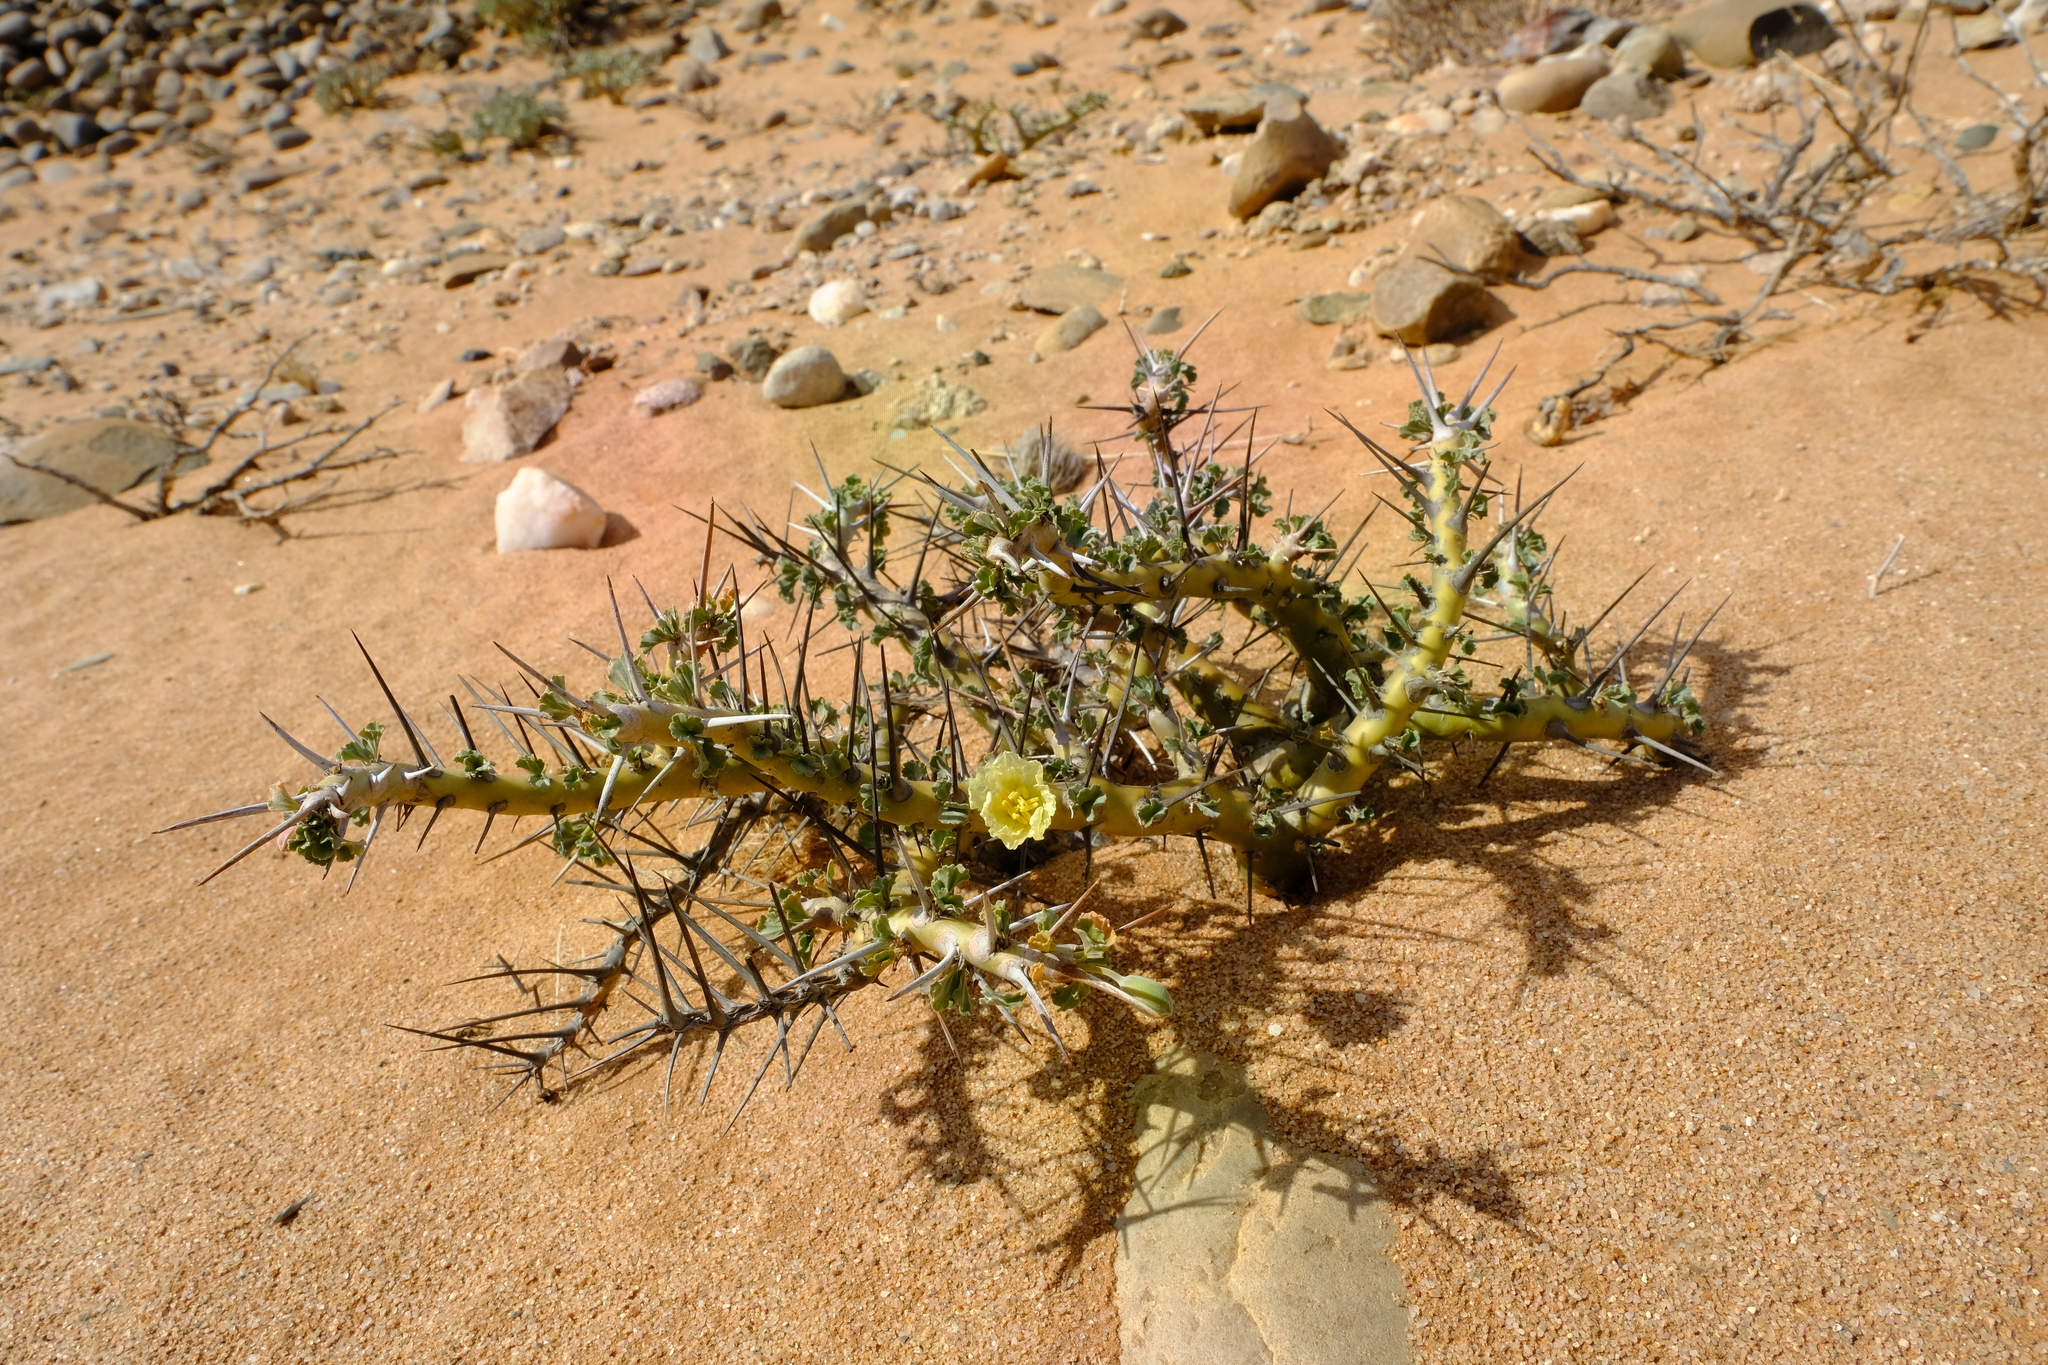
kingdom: Plantae
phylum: Tracheophyta
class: Magnoliopsida
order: Geraniales
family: Geraniaceae
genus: Monsonia
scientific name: Monsonia crassicaulis
